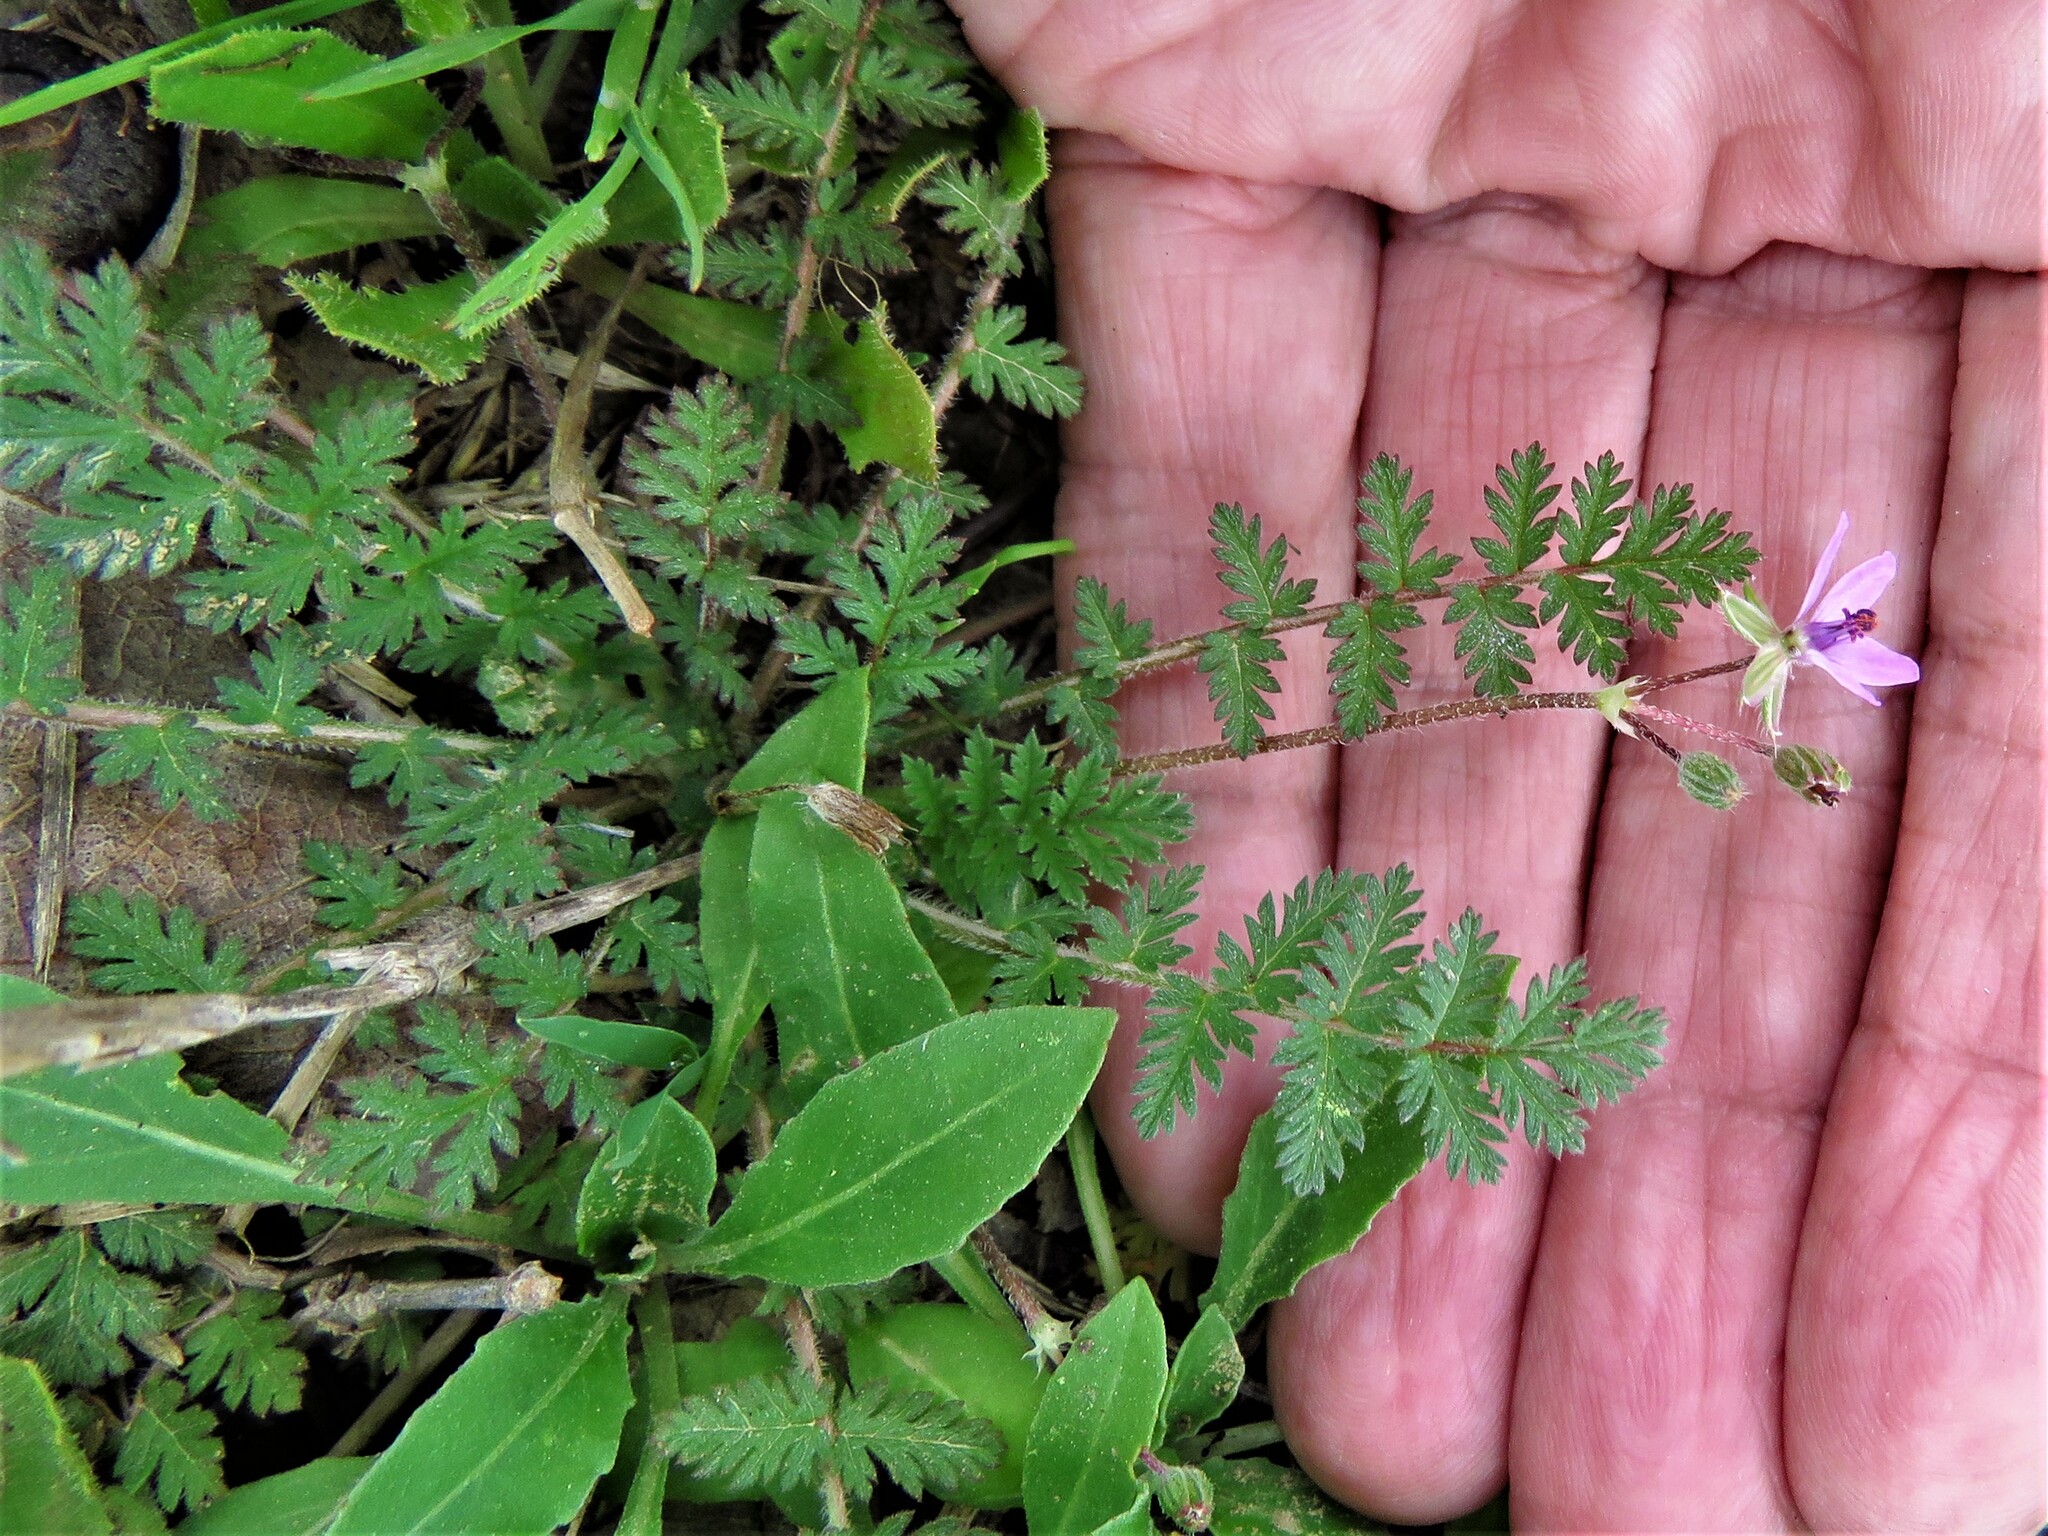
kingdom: Plantae
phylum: Tracheophyta
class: Magnoliopsida
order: Geraniales
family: Geraniaceae
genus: Erodium
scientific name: Erodium cicutarium
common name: Common stork's-bill
